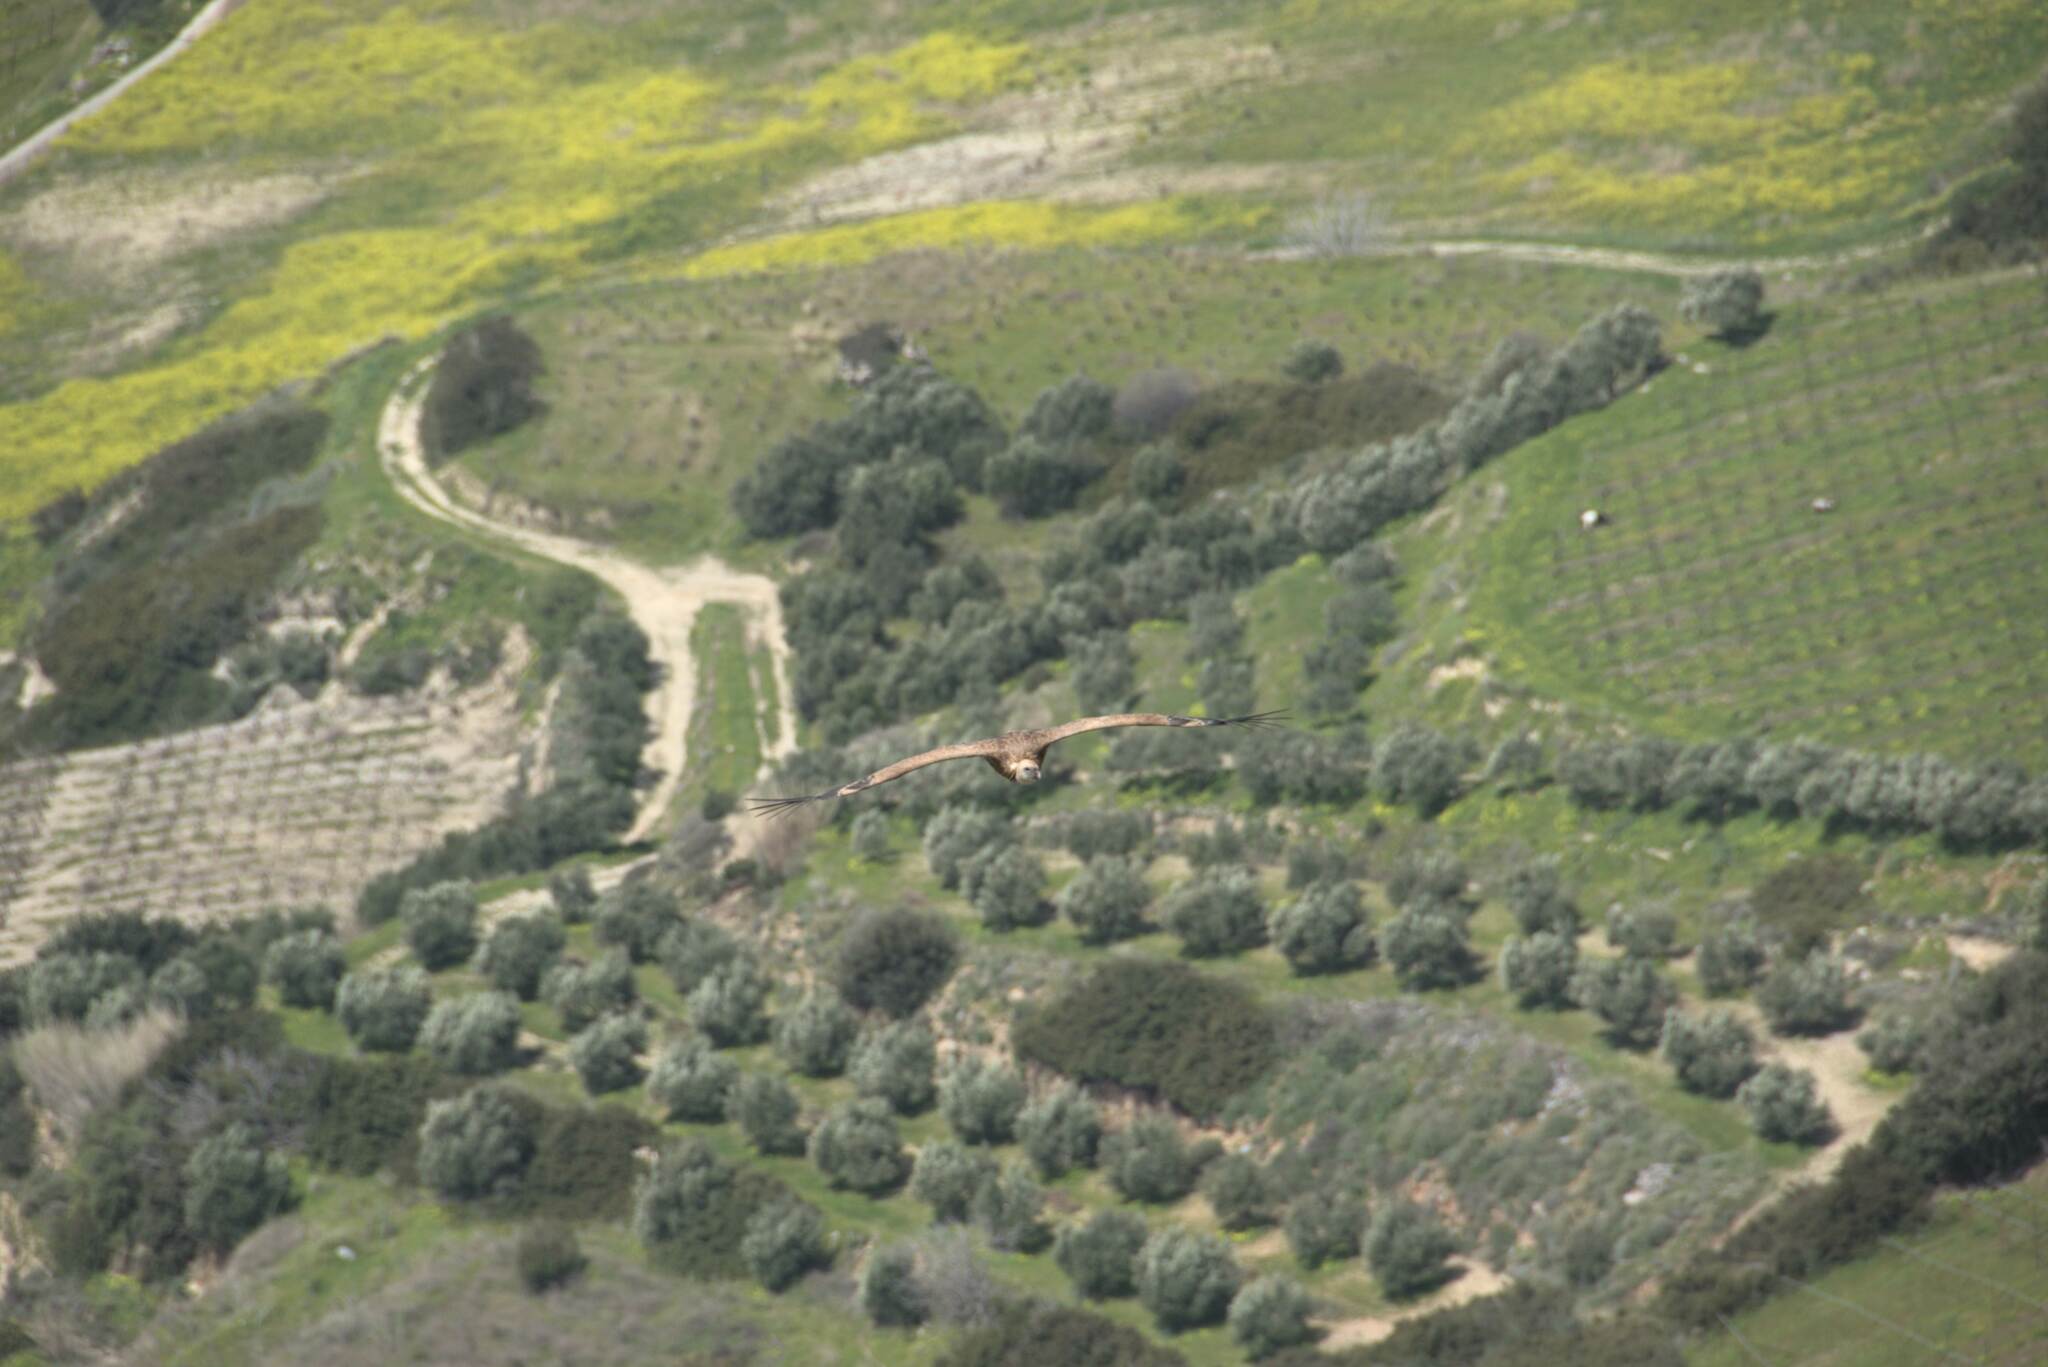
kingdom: Animalia
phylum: Chordata
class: Aves
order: Accipitriformes
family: Accipitridae
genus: Gyps
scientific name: Gyps fulvus
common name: Griffon vulture
